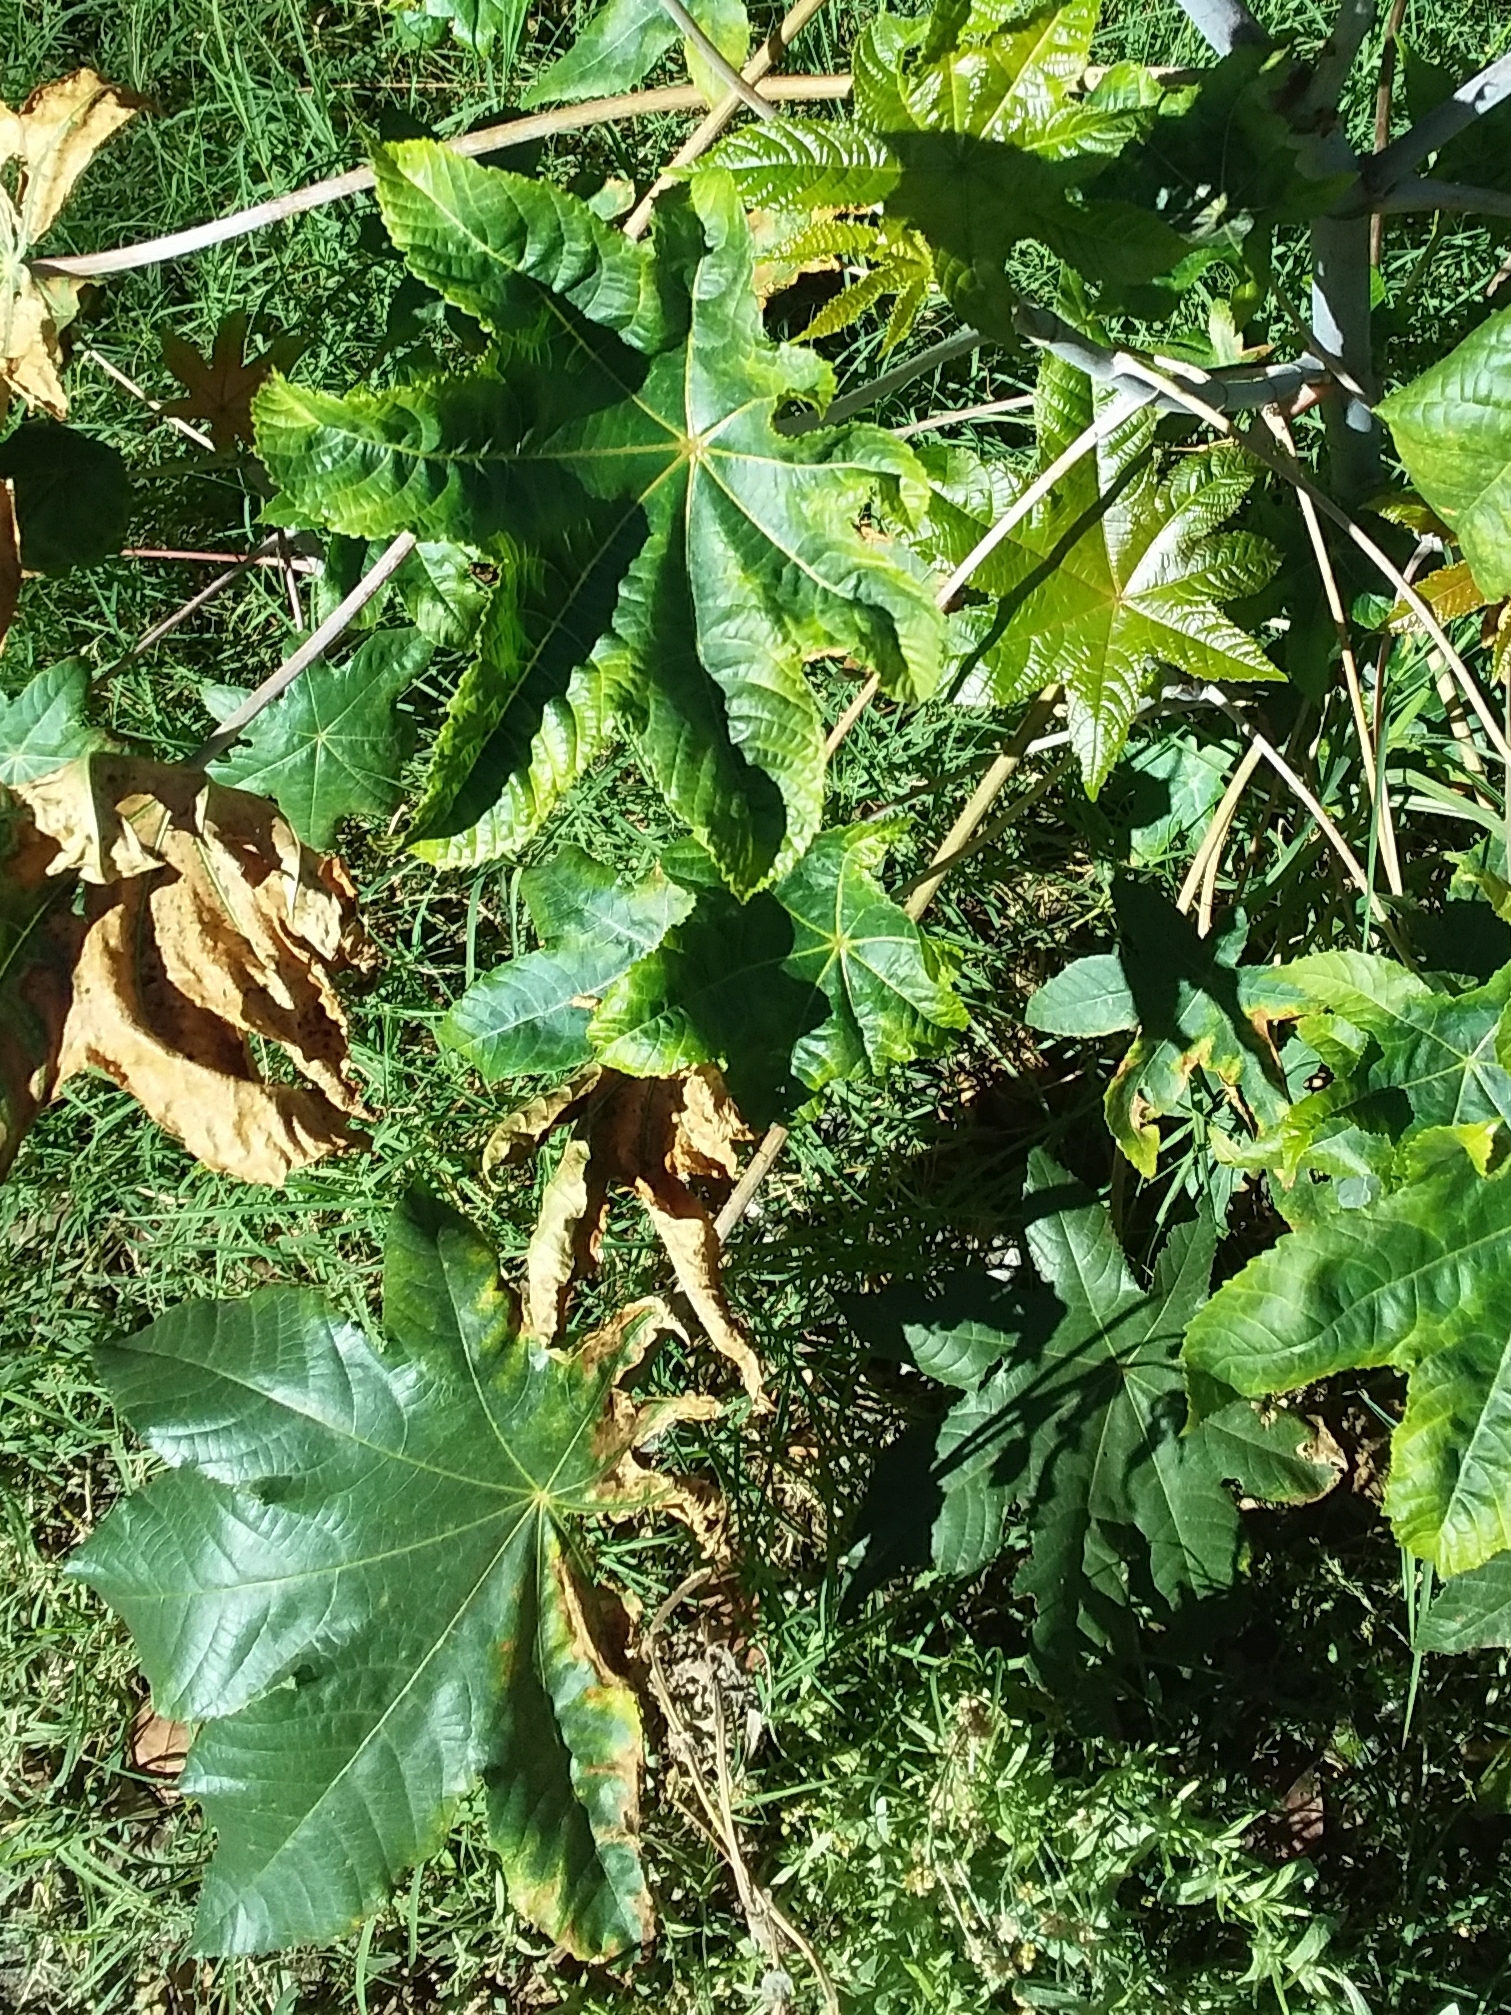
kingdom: Plantae
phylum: Tracheophyta
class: Magnoliopsida
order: Malpighiales
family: Euphorbiaceae
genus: Ricinus
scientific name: Ricinus communis
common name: Castor-oil-plant
